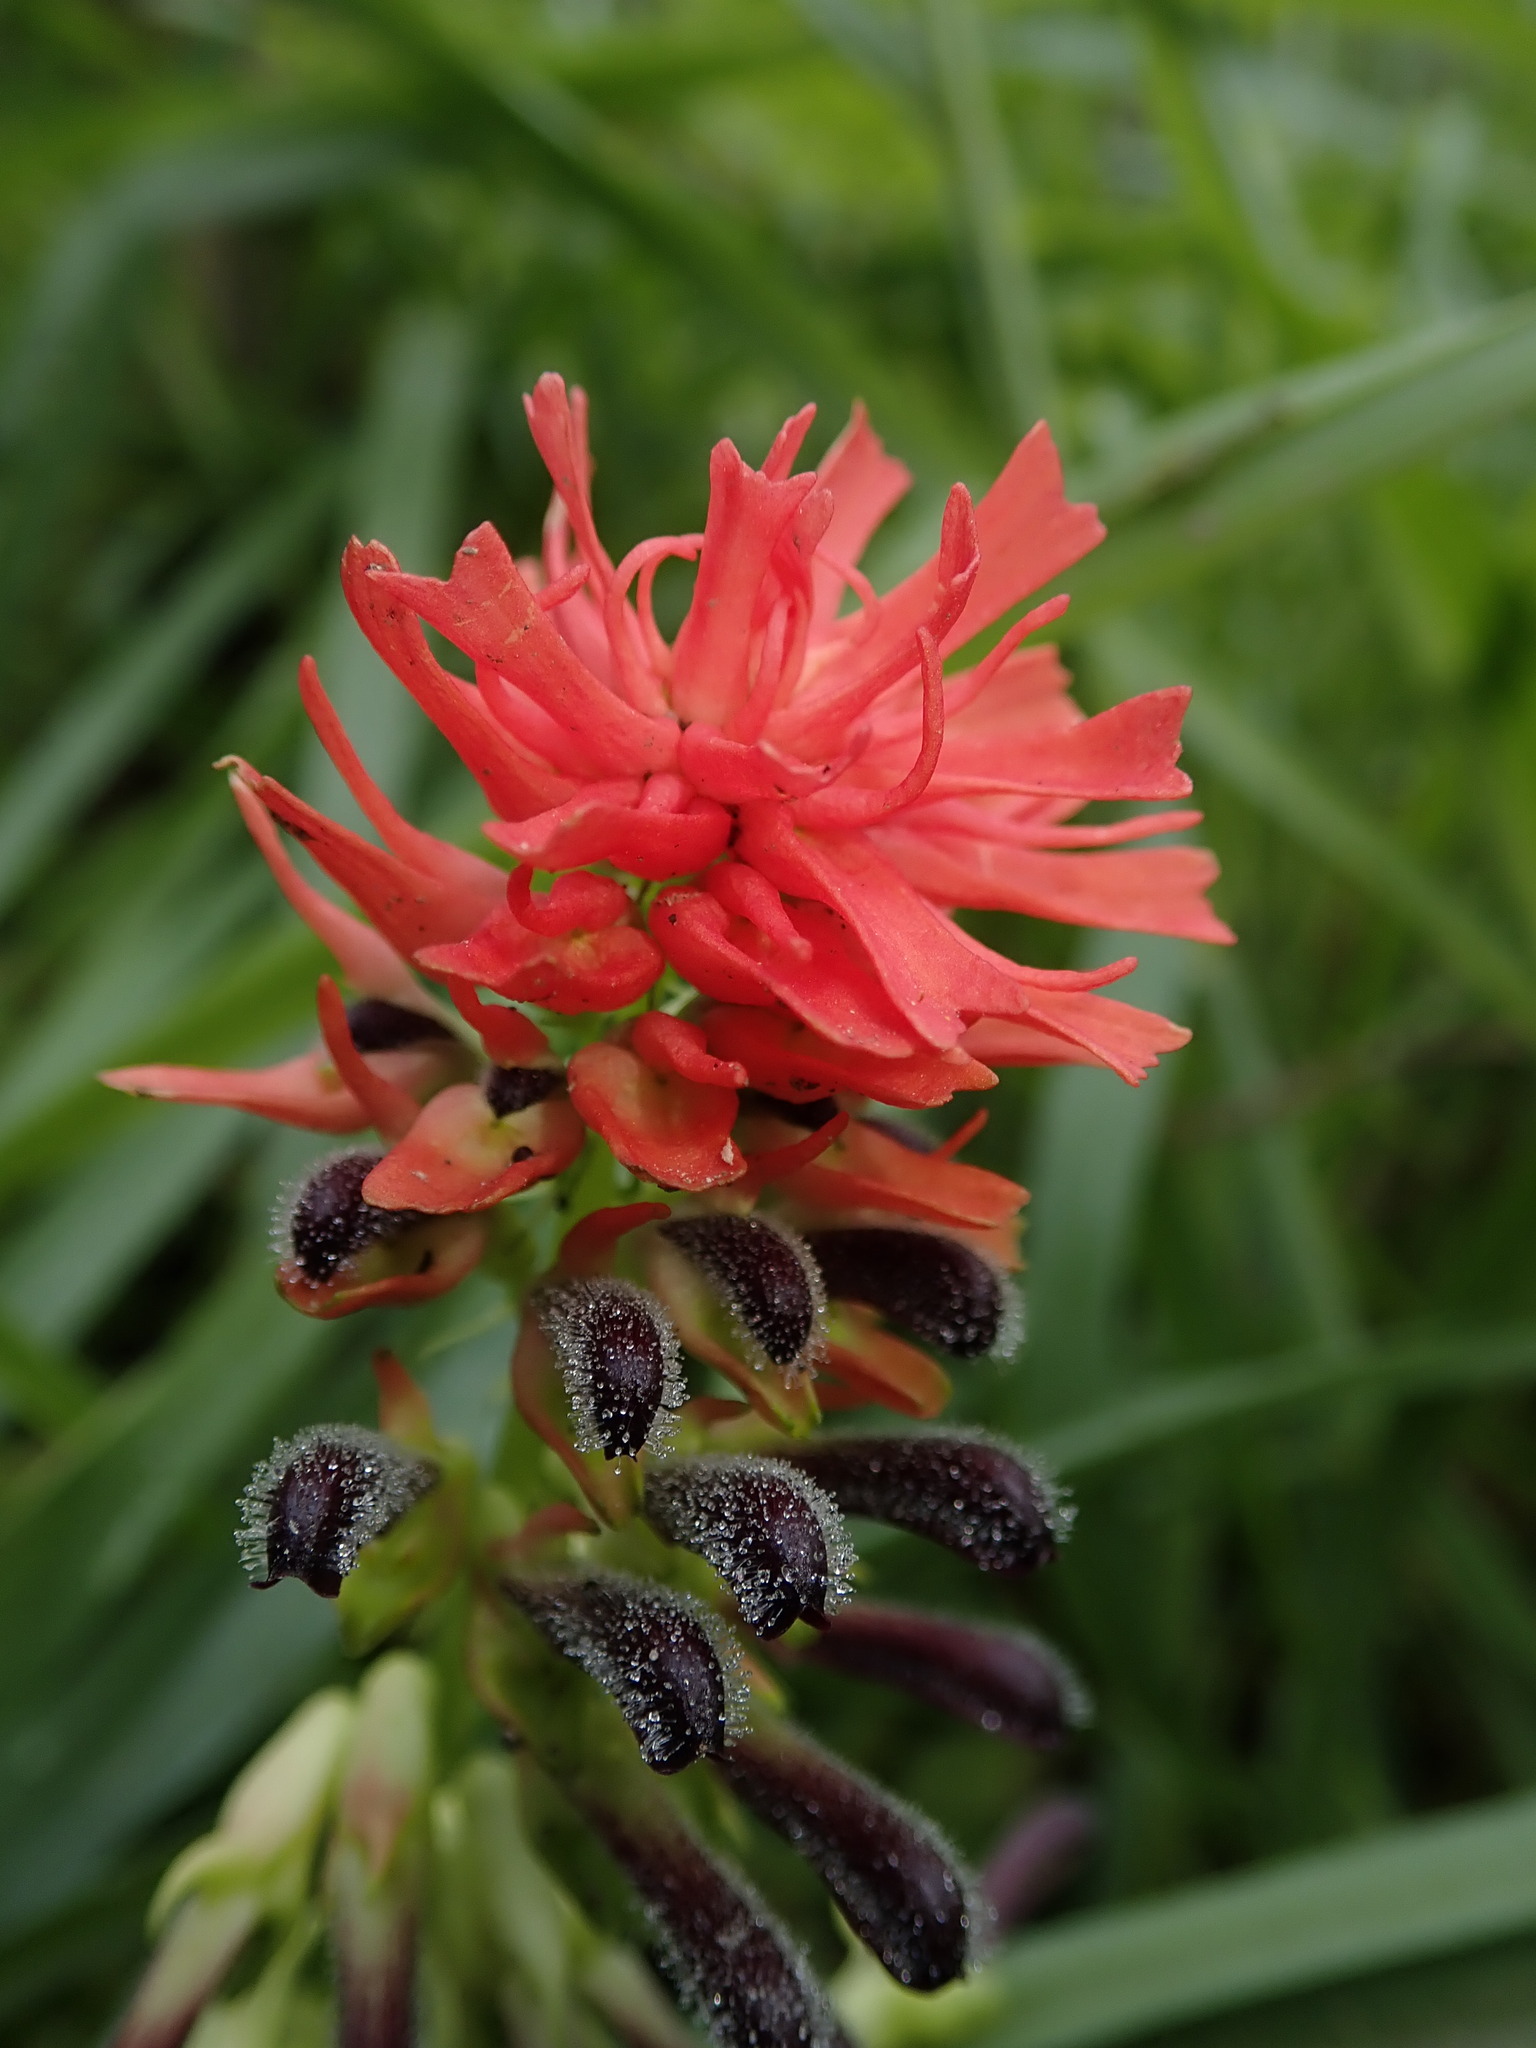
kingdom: Plantae
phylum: Tracheophyta
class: Magnoliopsida
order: Lamiales
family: Bignoniaceae
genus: Tourrettia
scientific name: Tourrettia lappacea
